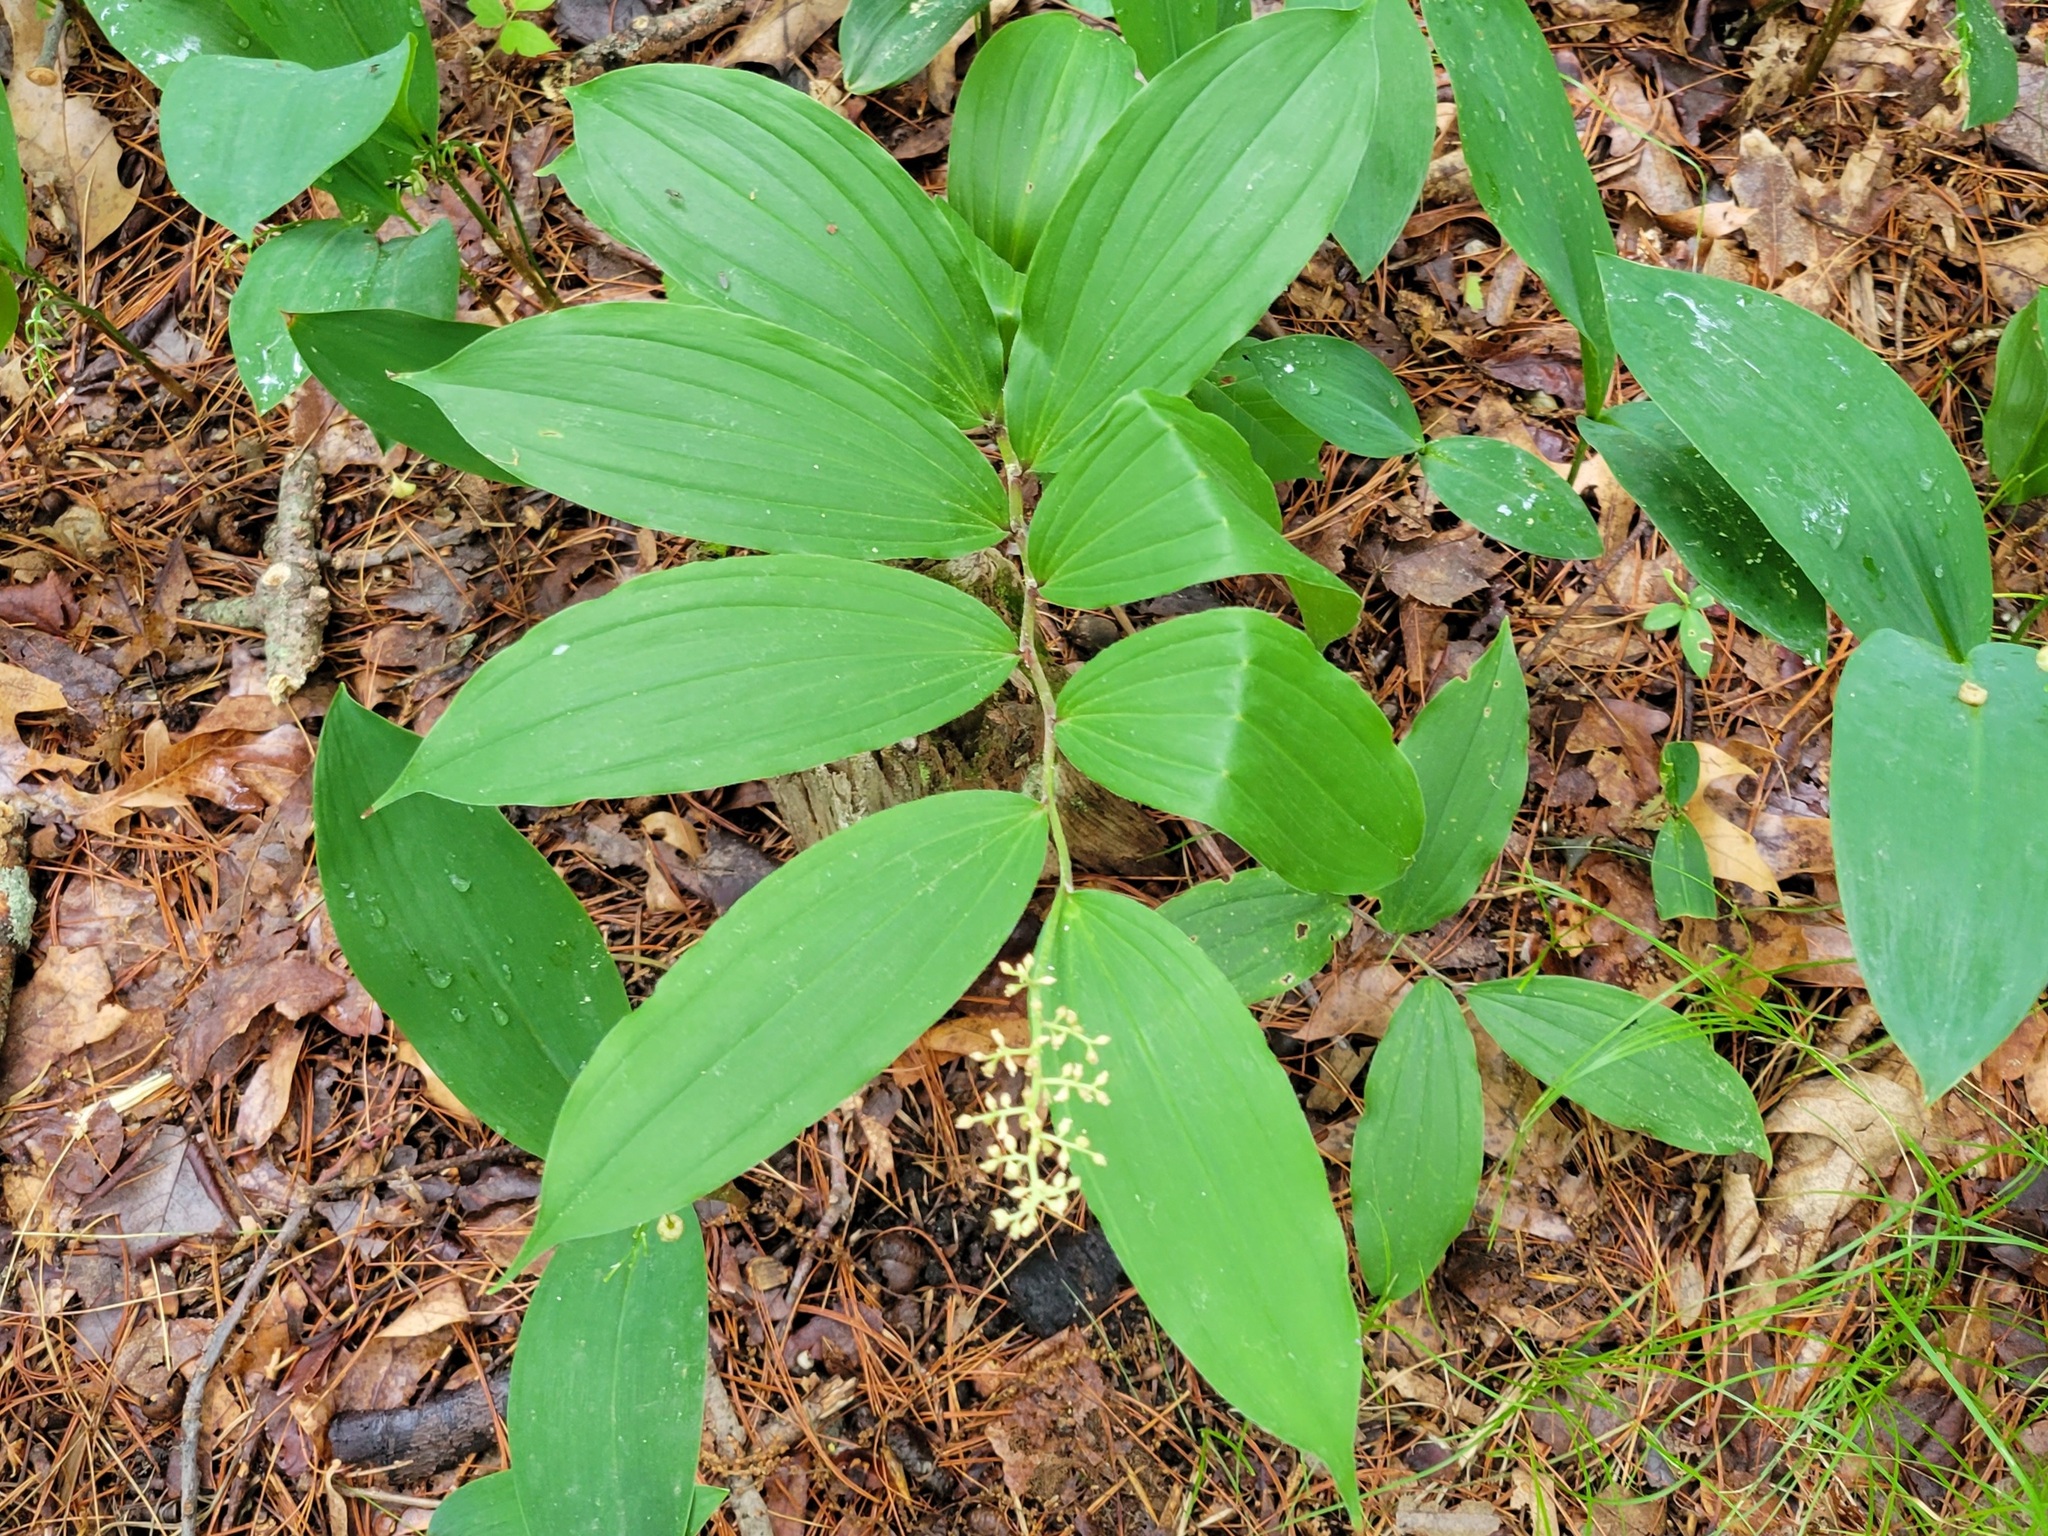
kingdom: Plantae
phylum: Tracheophyta
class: Liliopsida
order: Asparagales
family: Asparagaceae
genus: Maianthemum
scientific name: Maianthemum racemosum
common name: False spikenard
